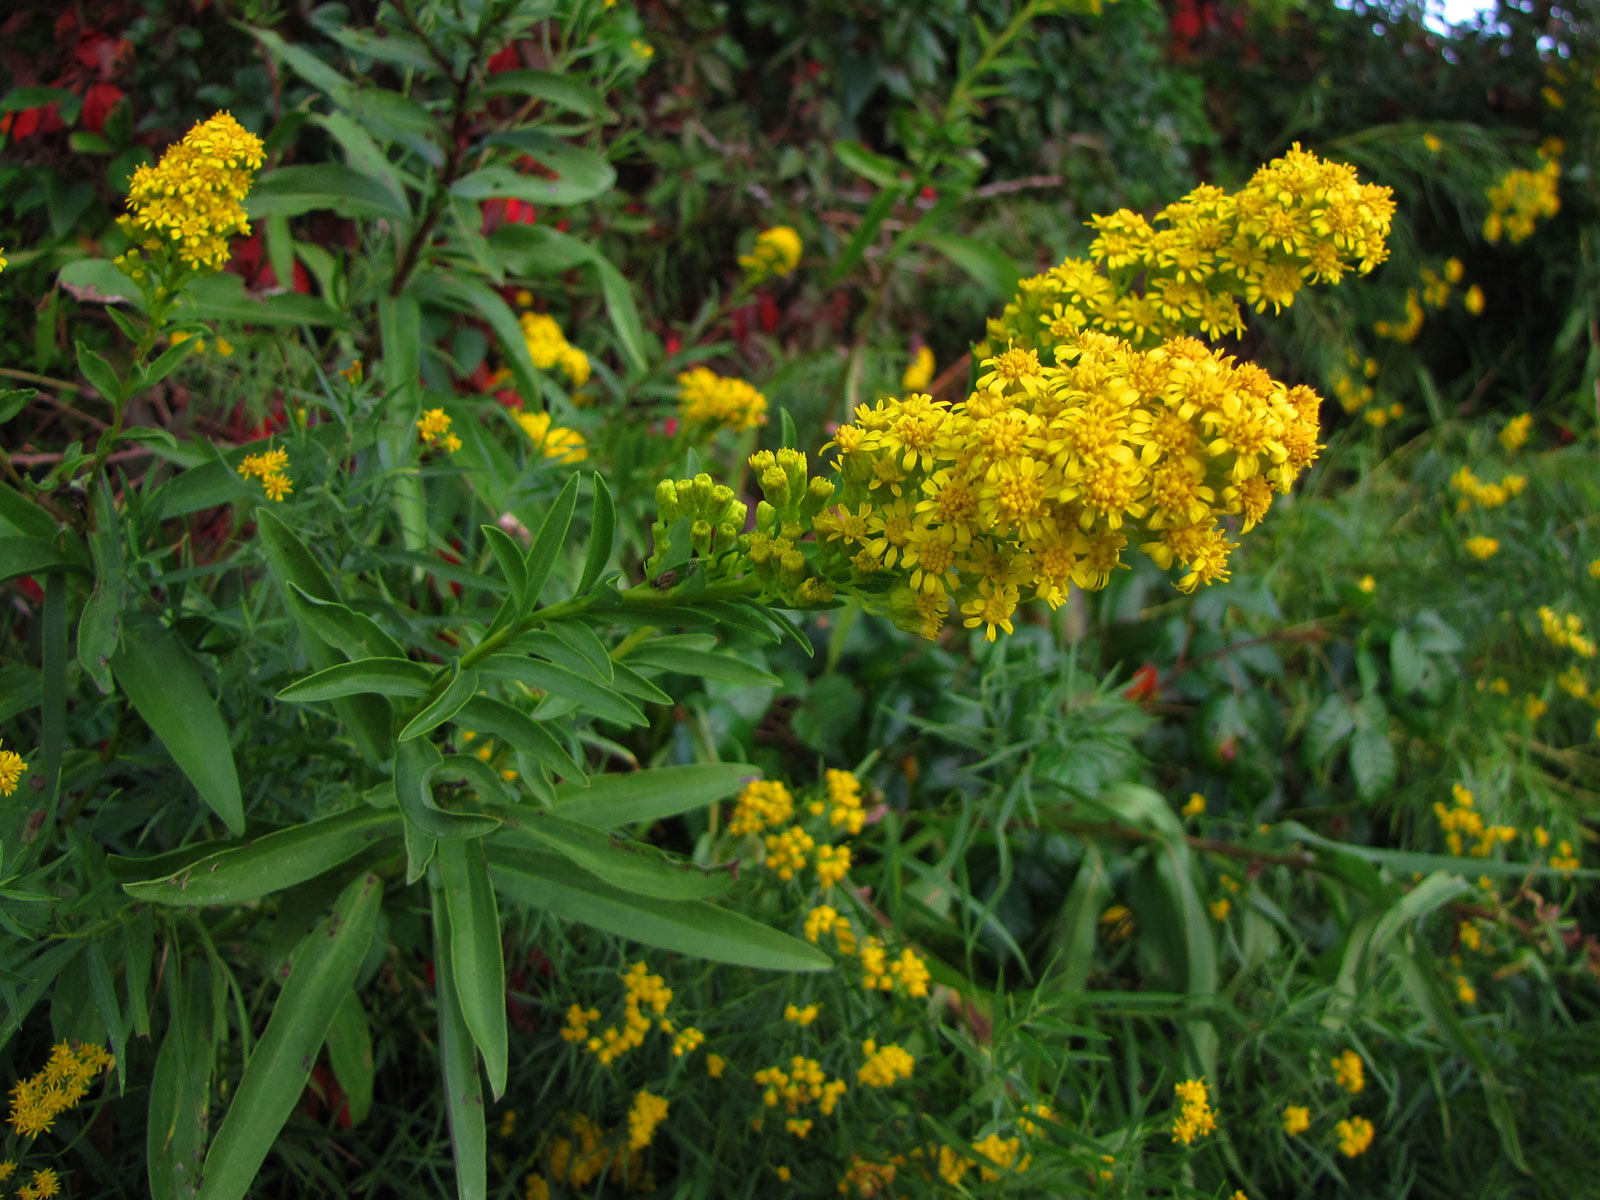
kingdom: Plantae
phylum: Tracheophyta
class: Magnoliopsida
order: Asterales
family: Asteraceae
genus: Solidago
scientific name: Solidago sempervirens
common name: Salt-marsh goldenrod
